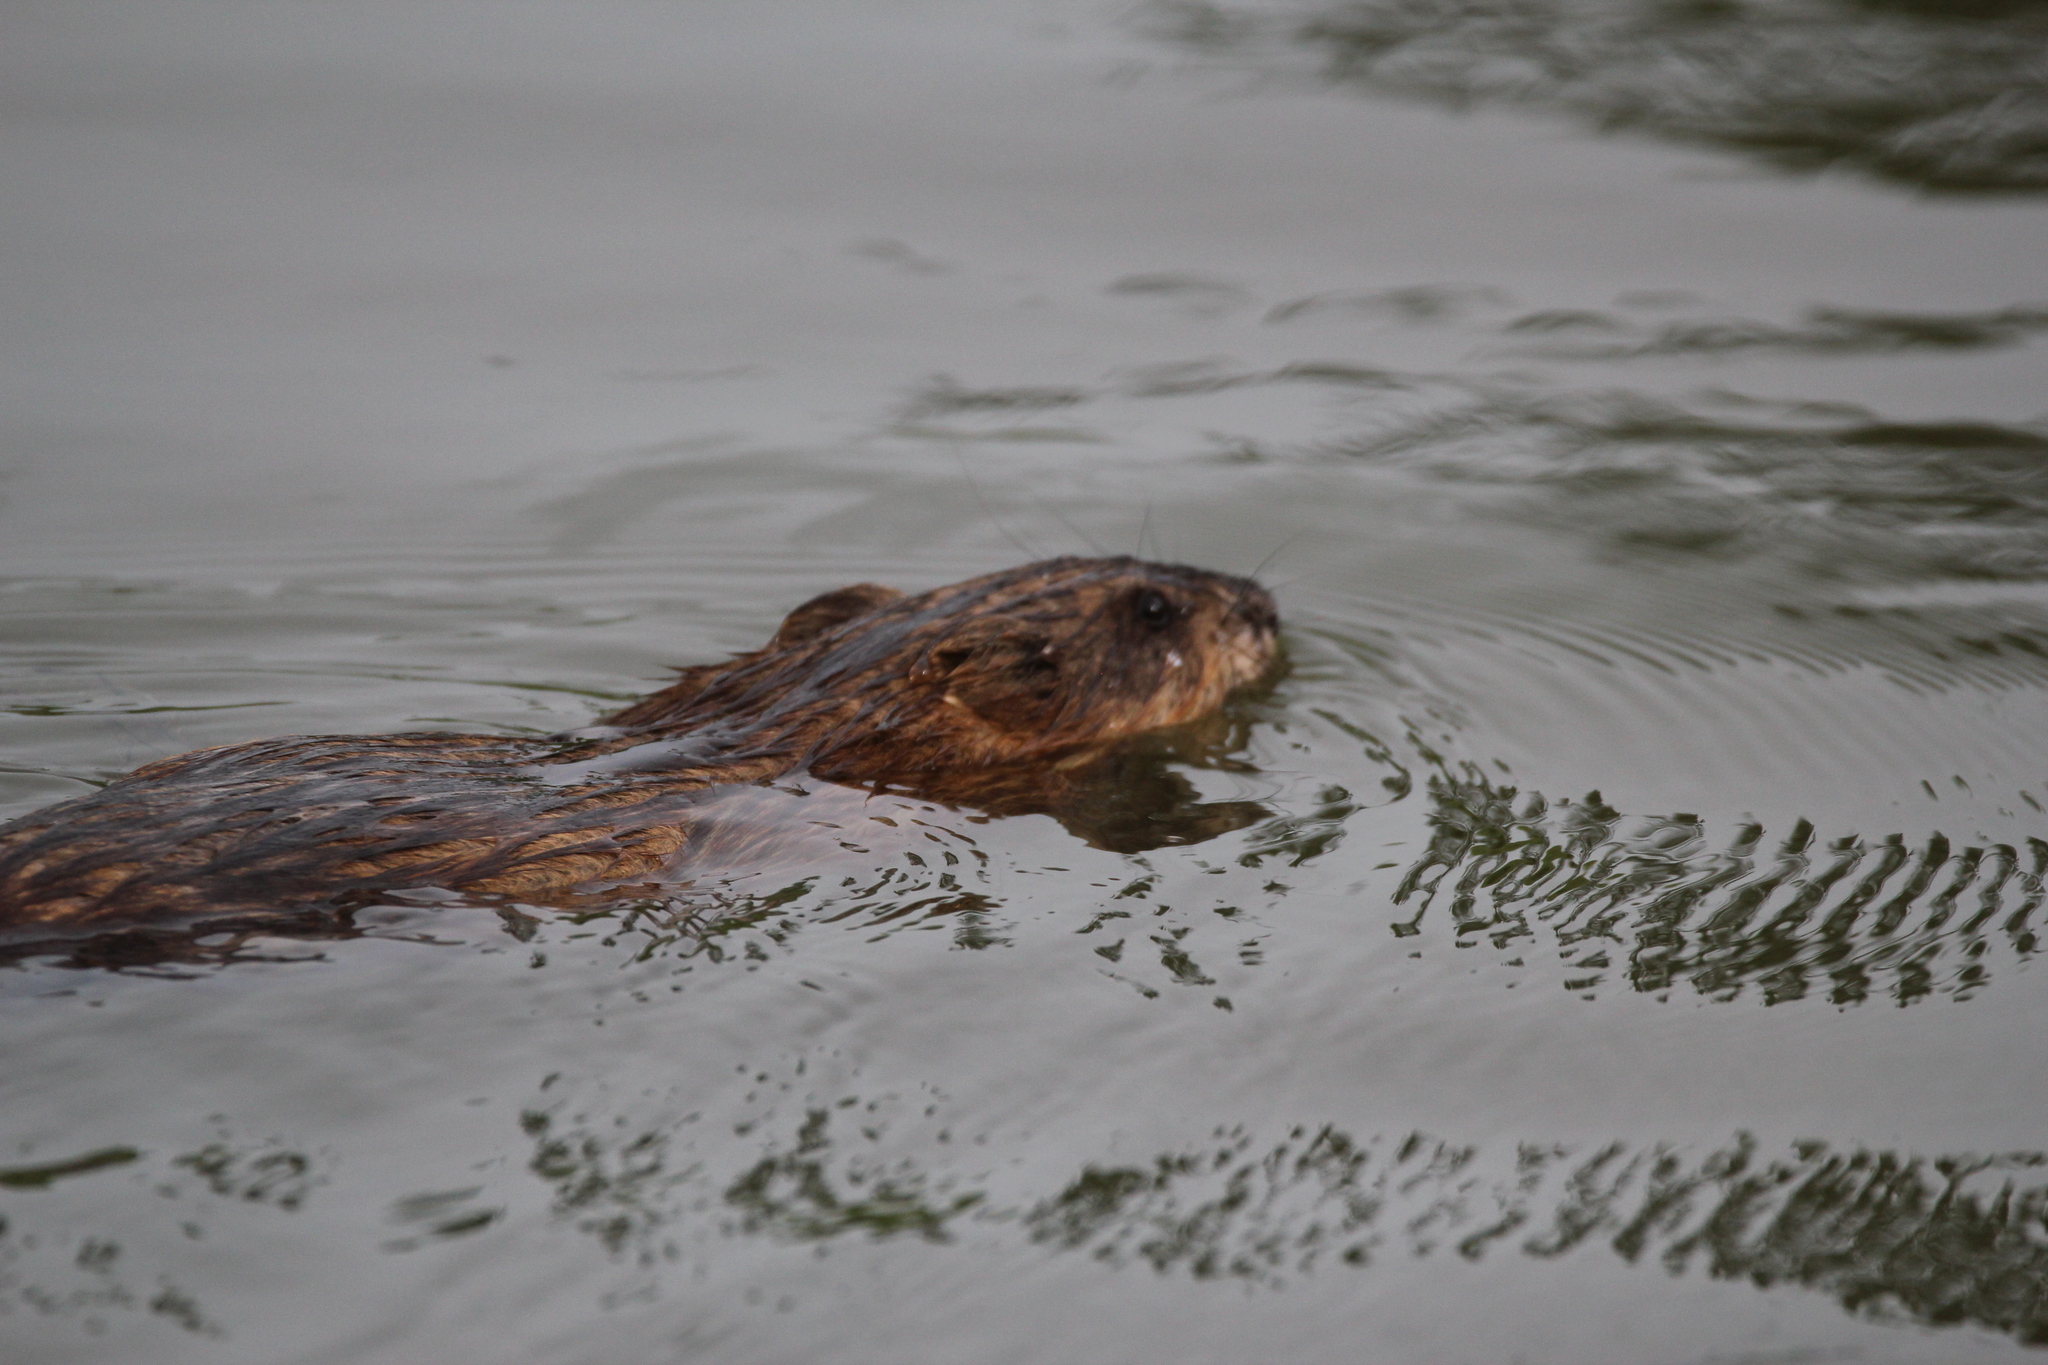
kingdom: Animalia
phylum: Chordata
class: Mammalia
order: Rodentia
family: Cricetidae
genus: Ondatra
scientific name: Ondatra zibethicus
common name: Muskrat
